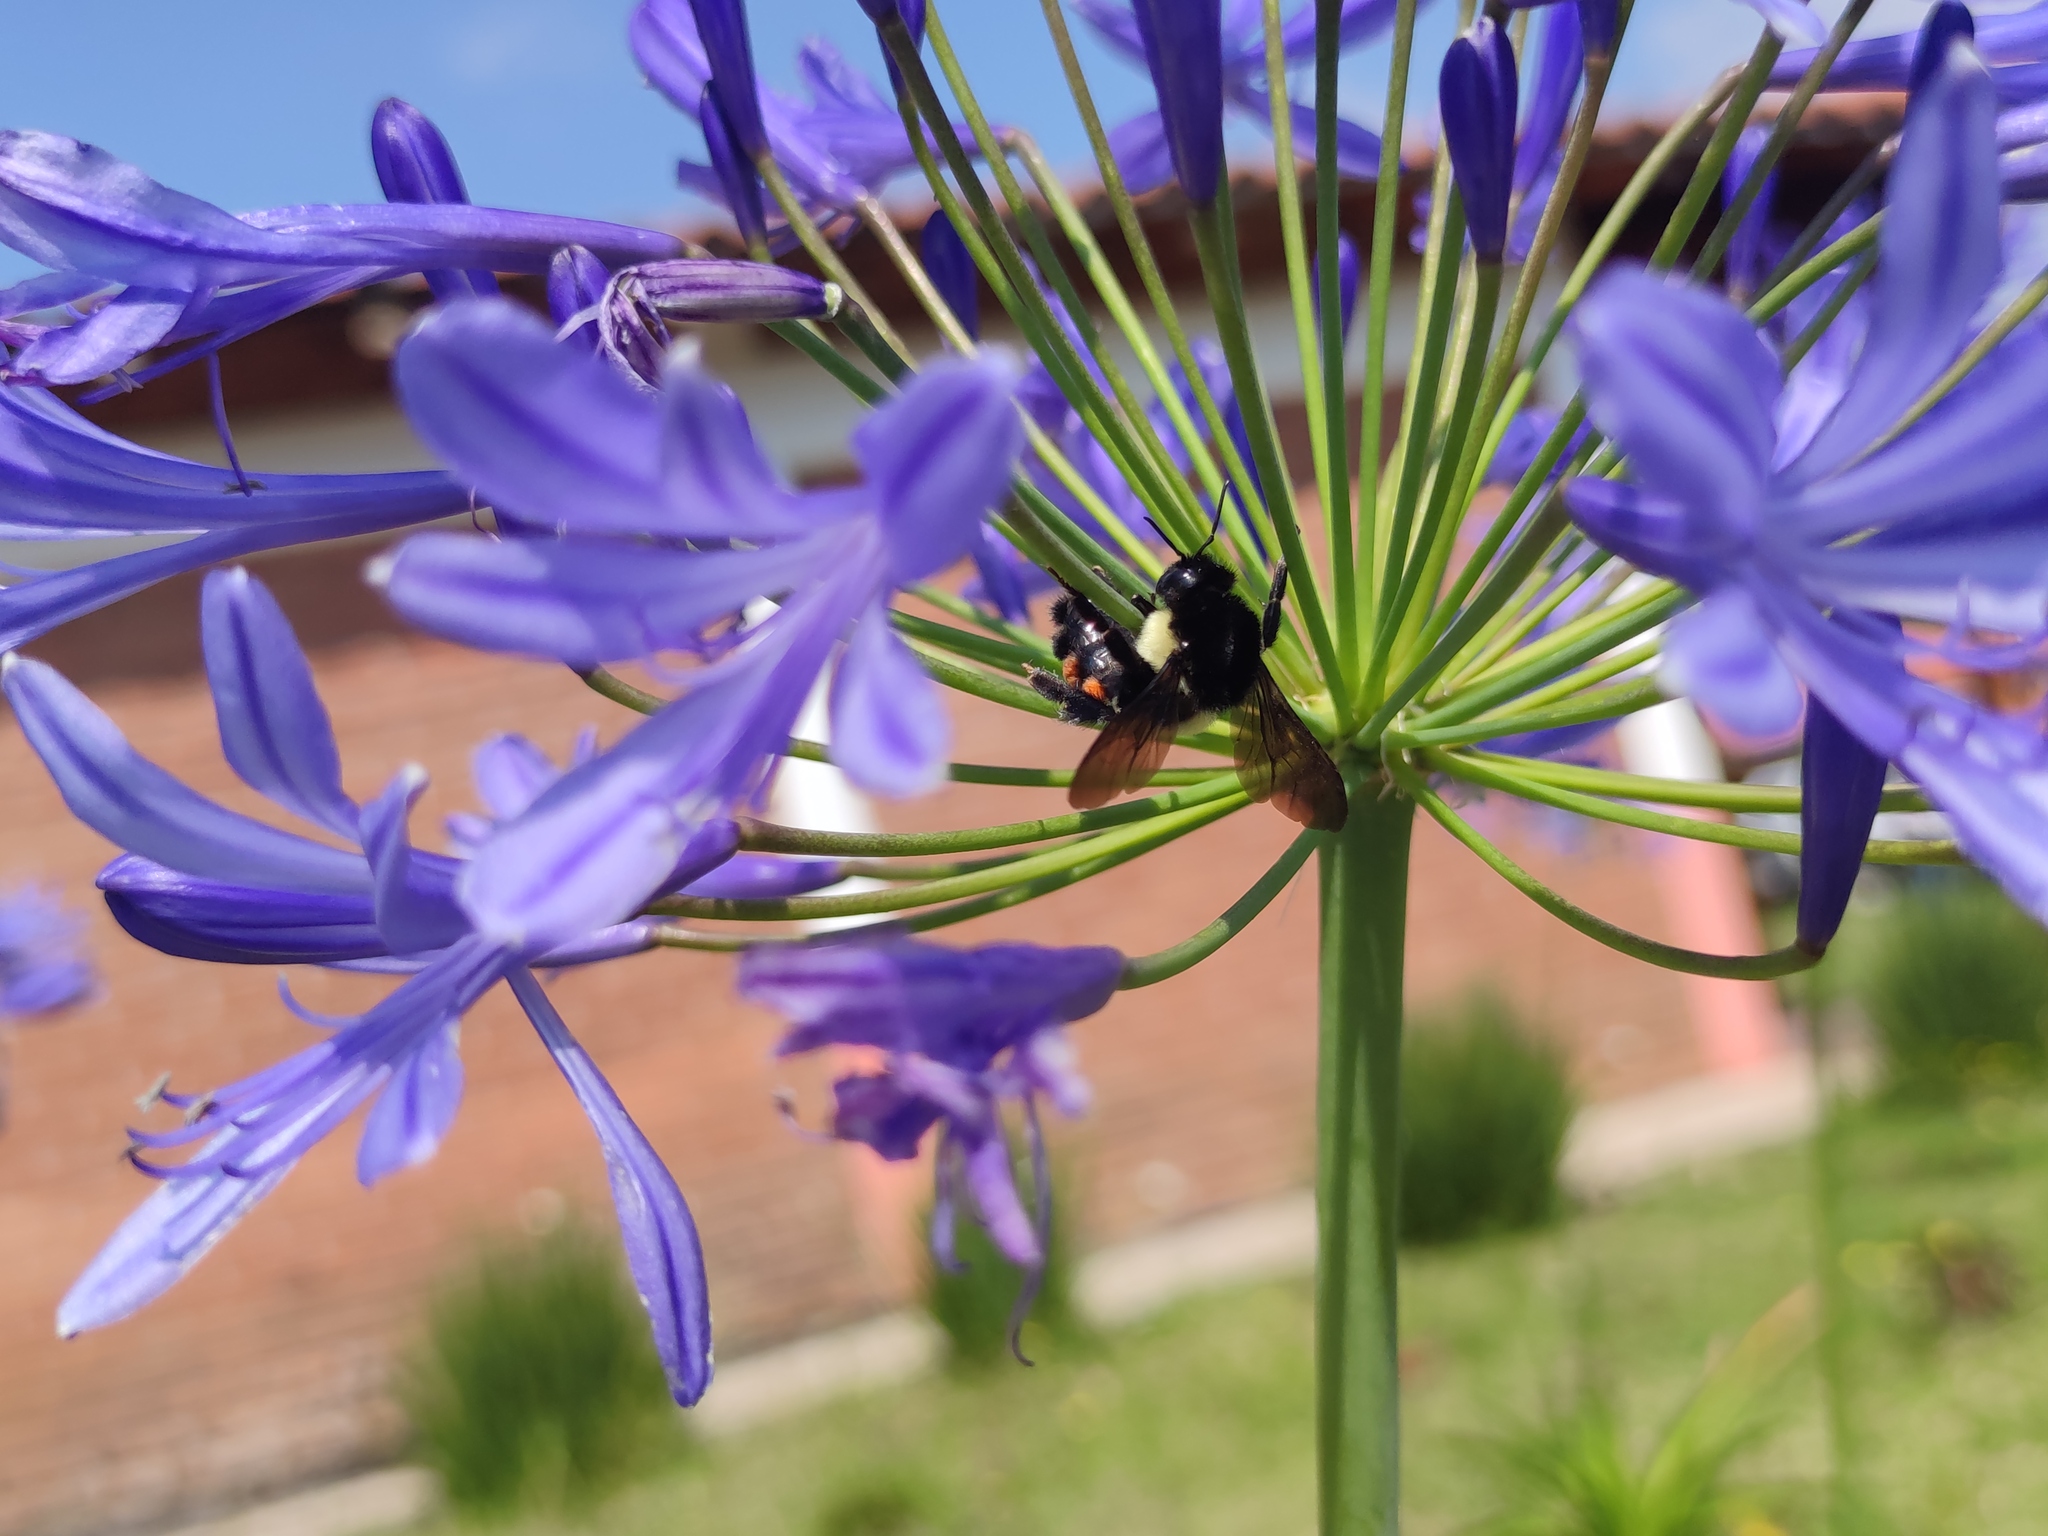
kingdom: Animalia
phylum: Arthropoda
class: Insecta
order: Hymenoptera
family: Apidae
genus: Bombus
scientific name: Bombus ephippiatus
